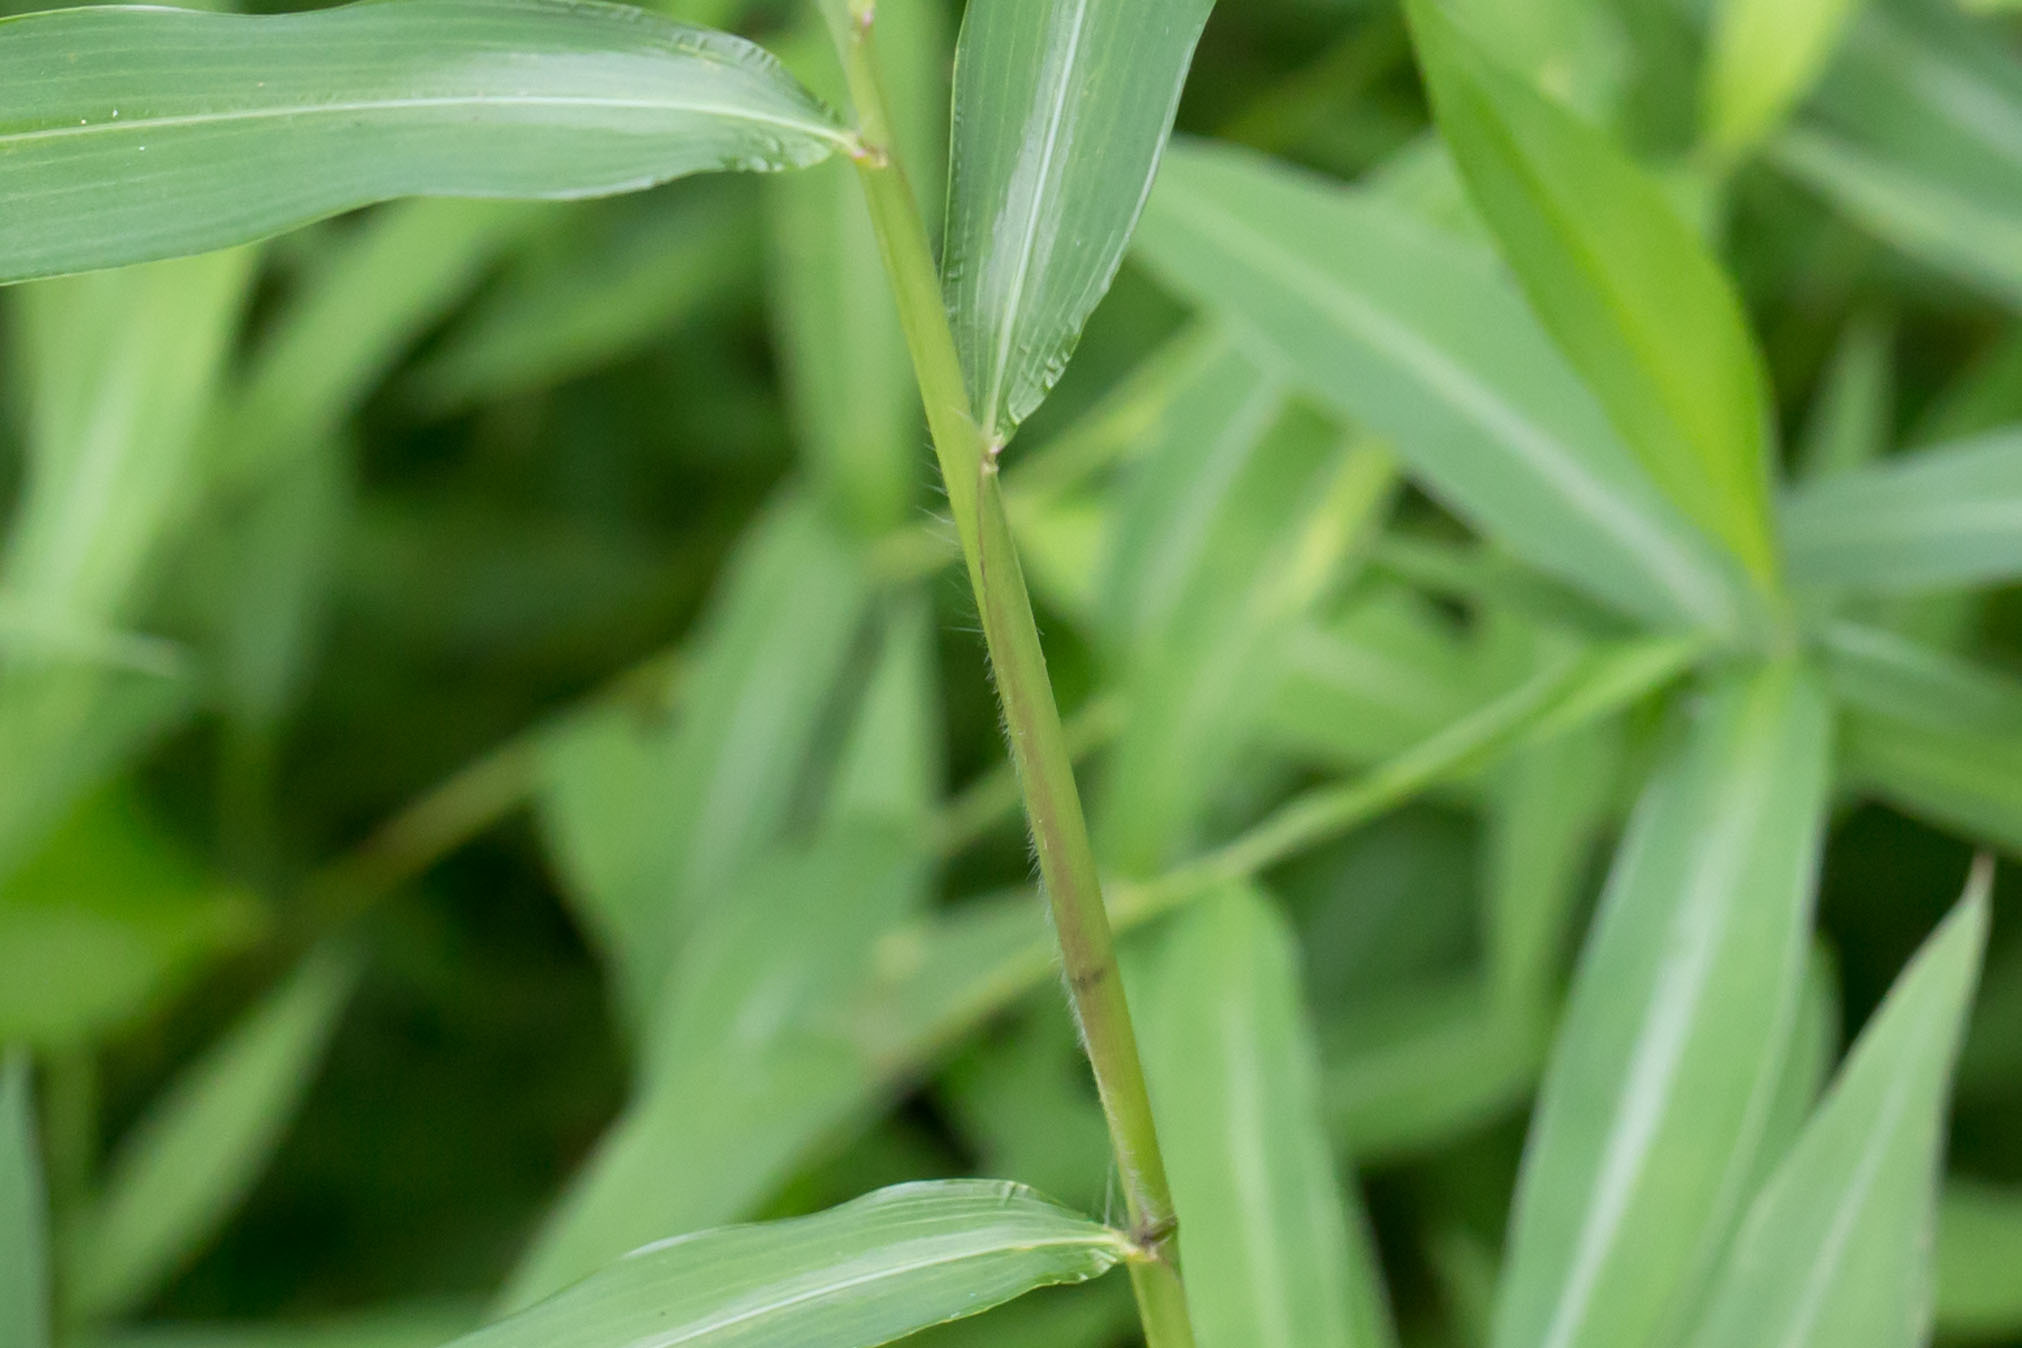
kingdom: Plantae
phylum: Tracheophyta
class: Liliopsida
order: Poales
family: Poaceae
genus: Microstegium
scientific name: Microstegium vimineum
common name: Japanese stiltgrass
